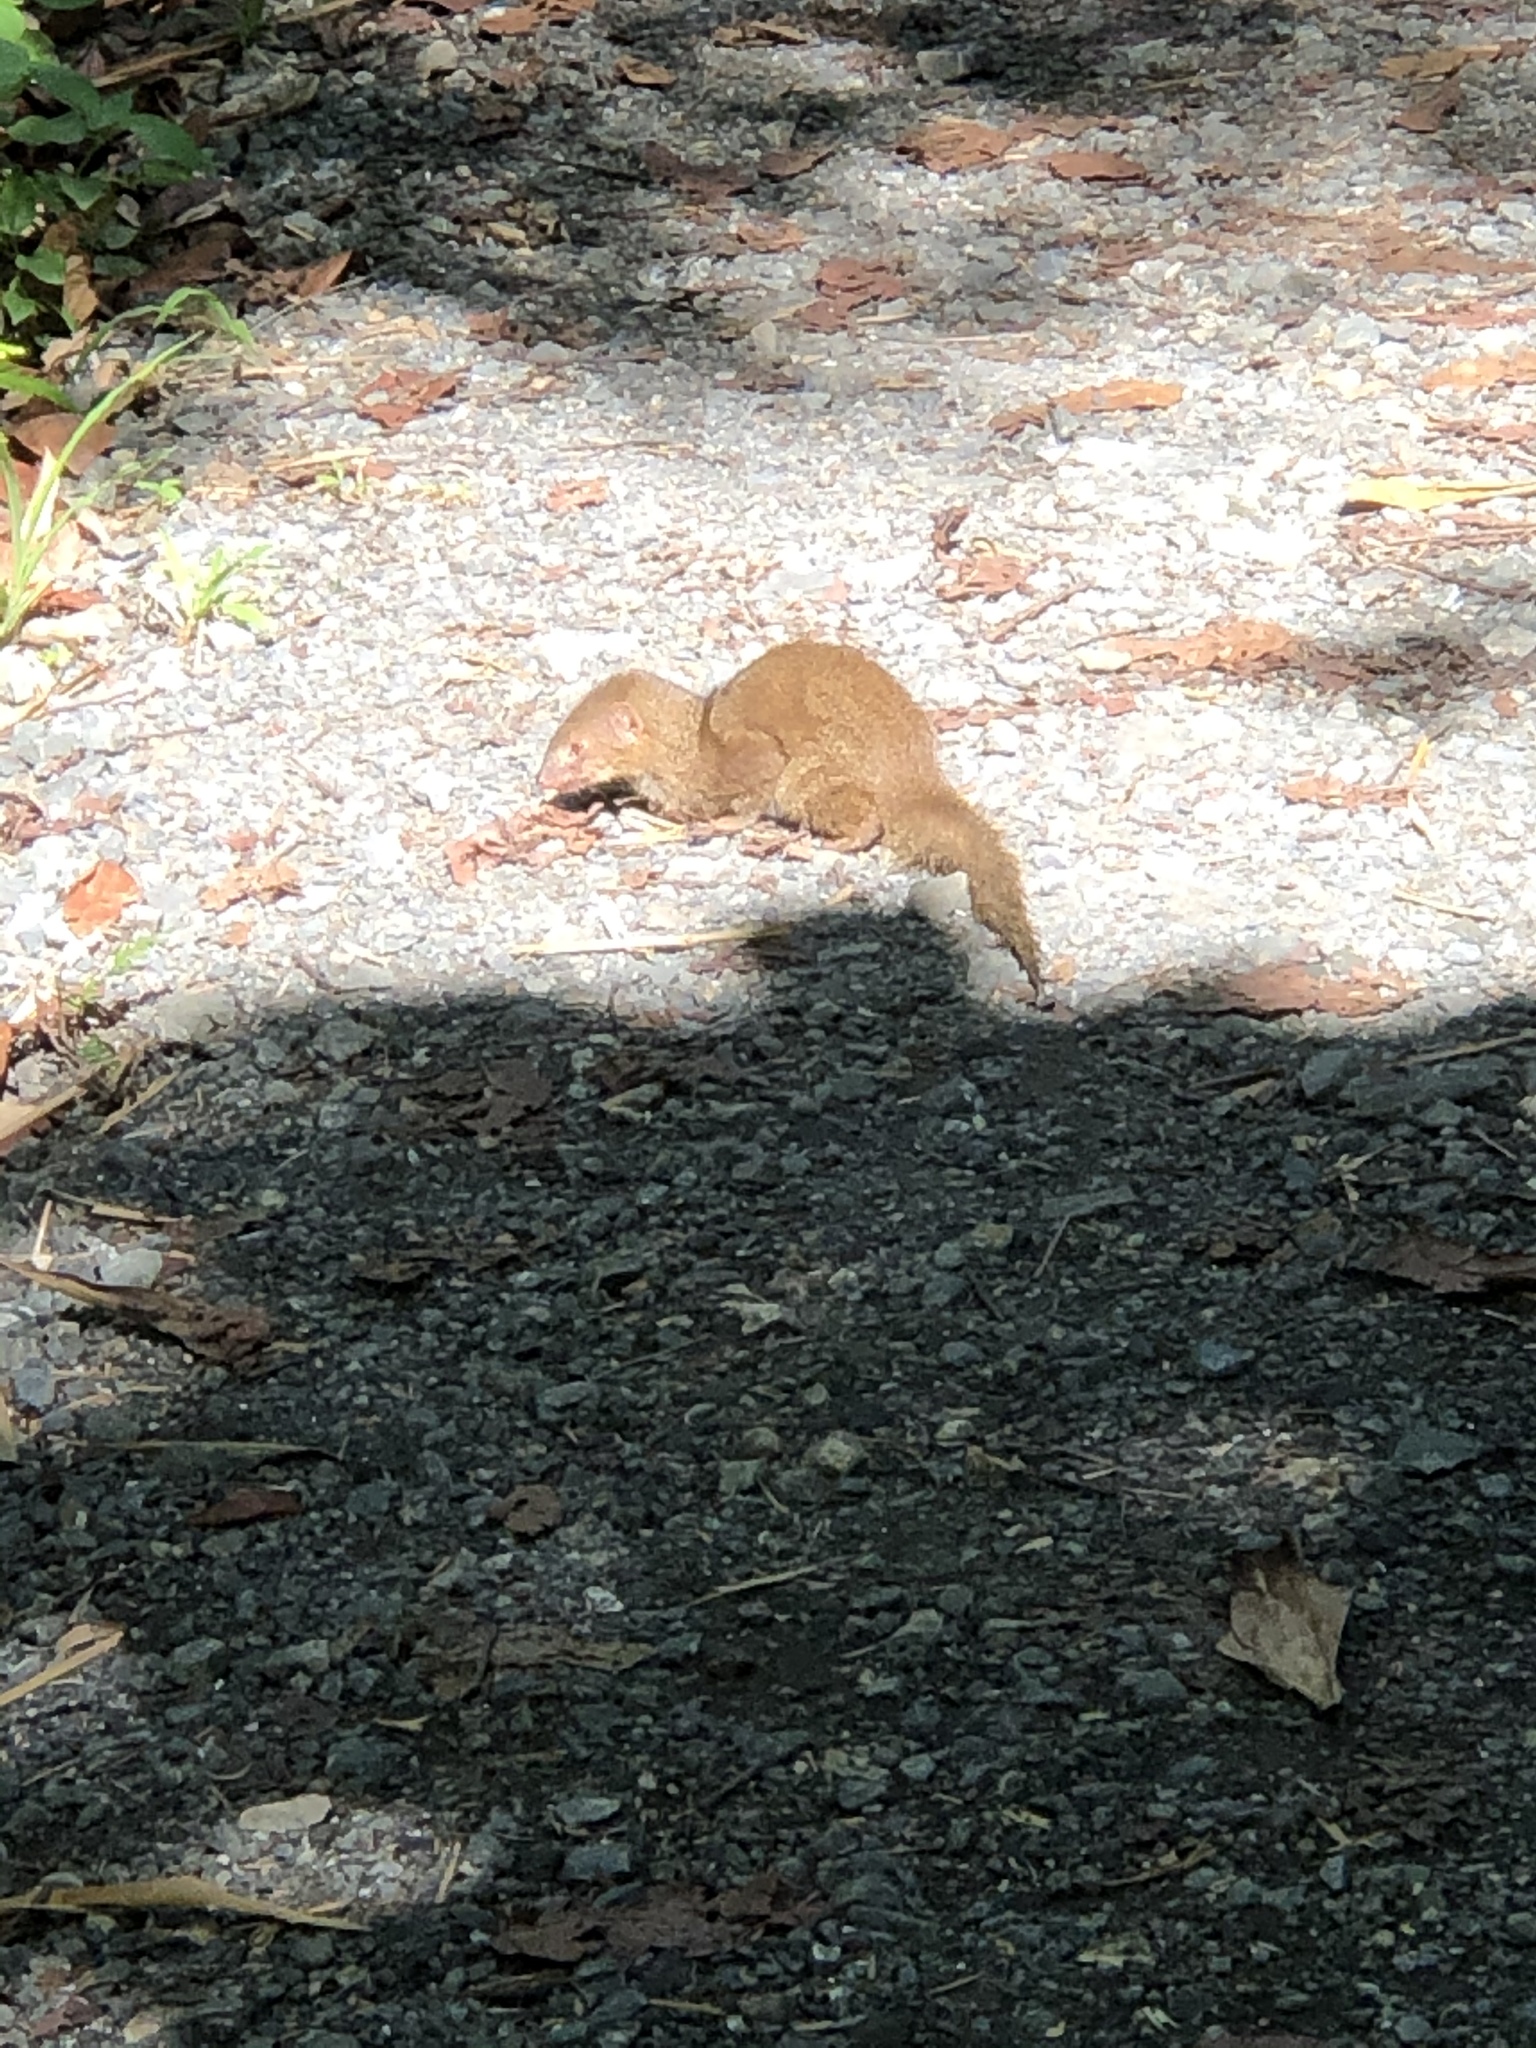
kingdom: Animalia
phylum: Chordata
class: Mammalia
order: Carnivora
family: Herpestidae
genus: Herpestes
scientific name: Herpestes javanicus
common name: Small asian mongoose
